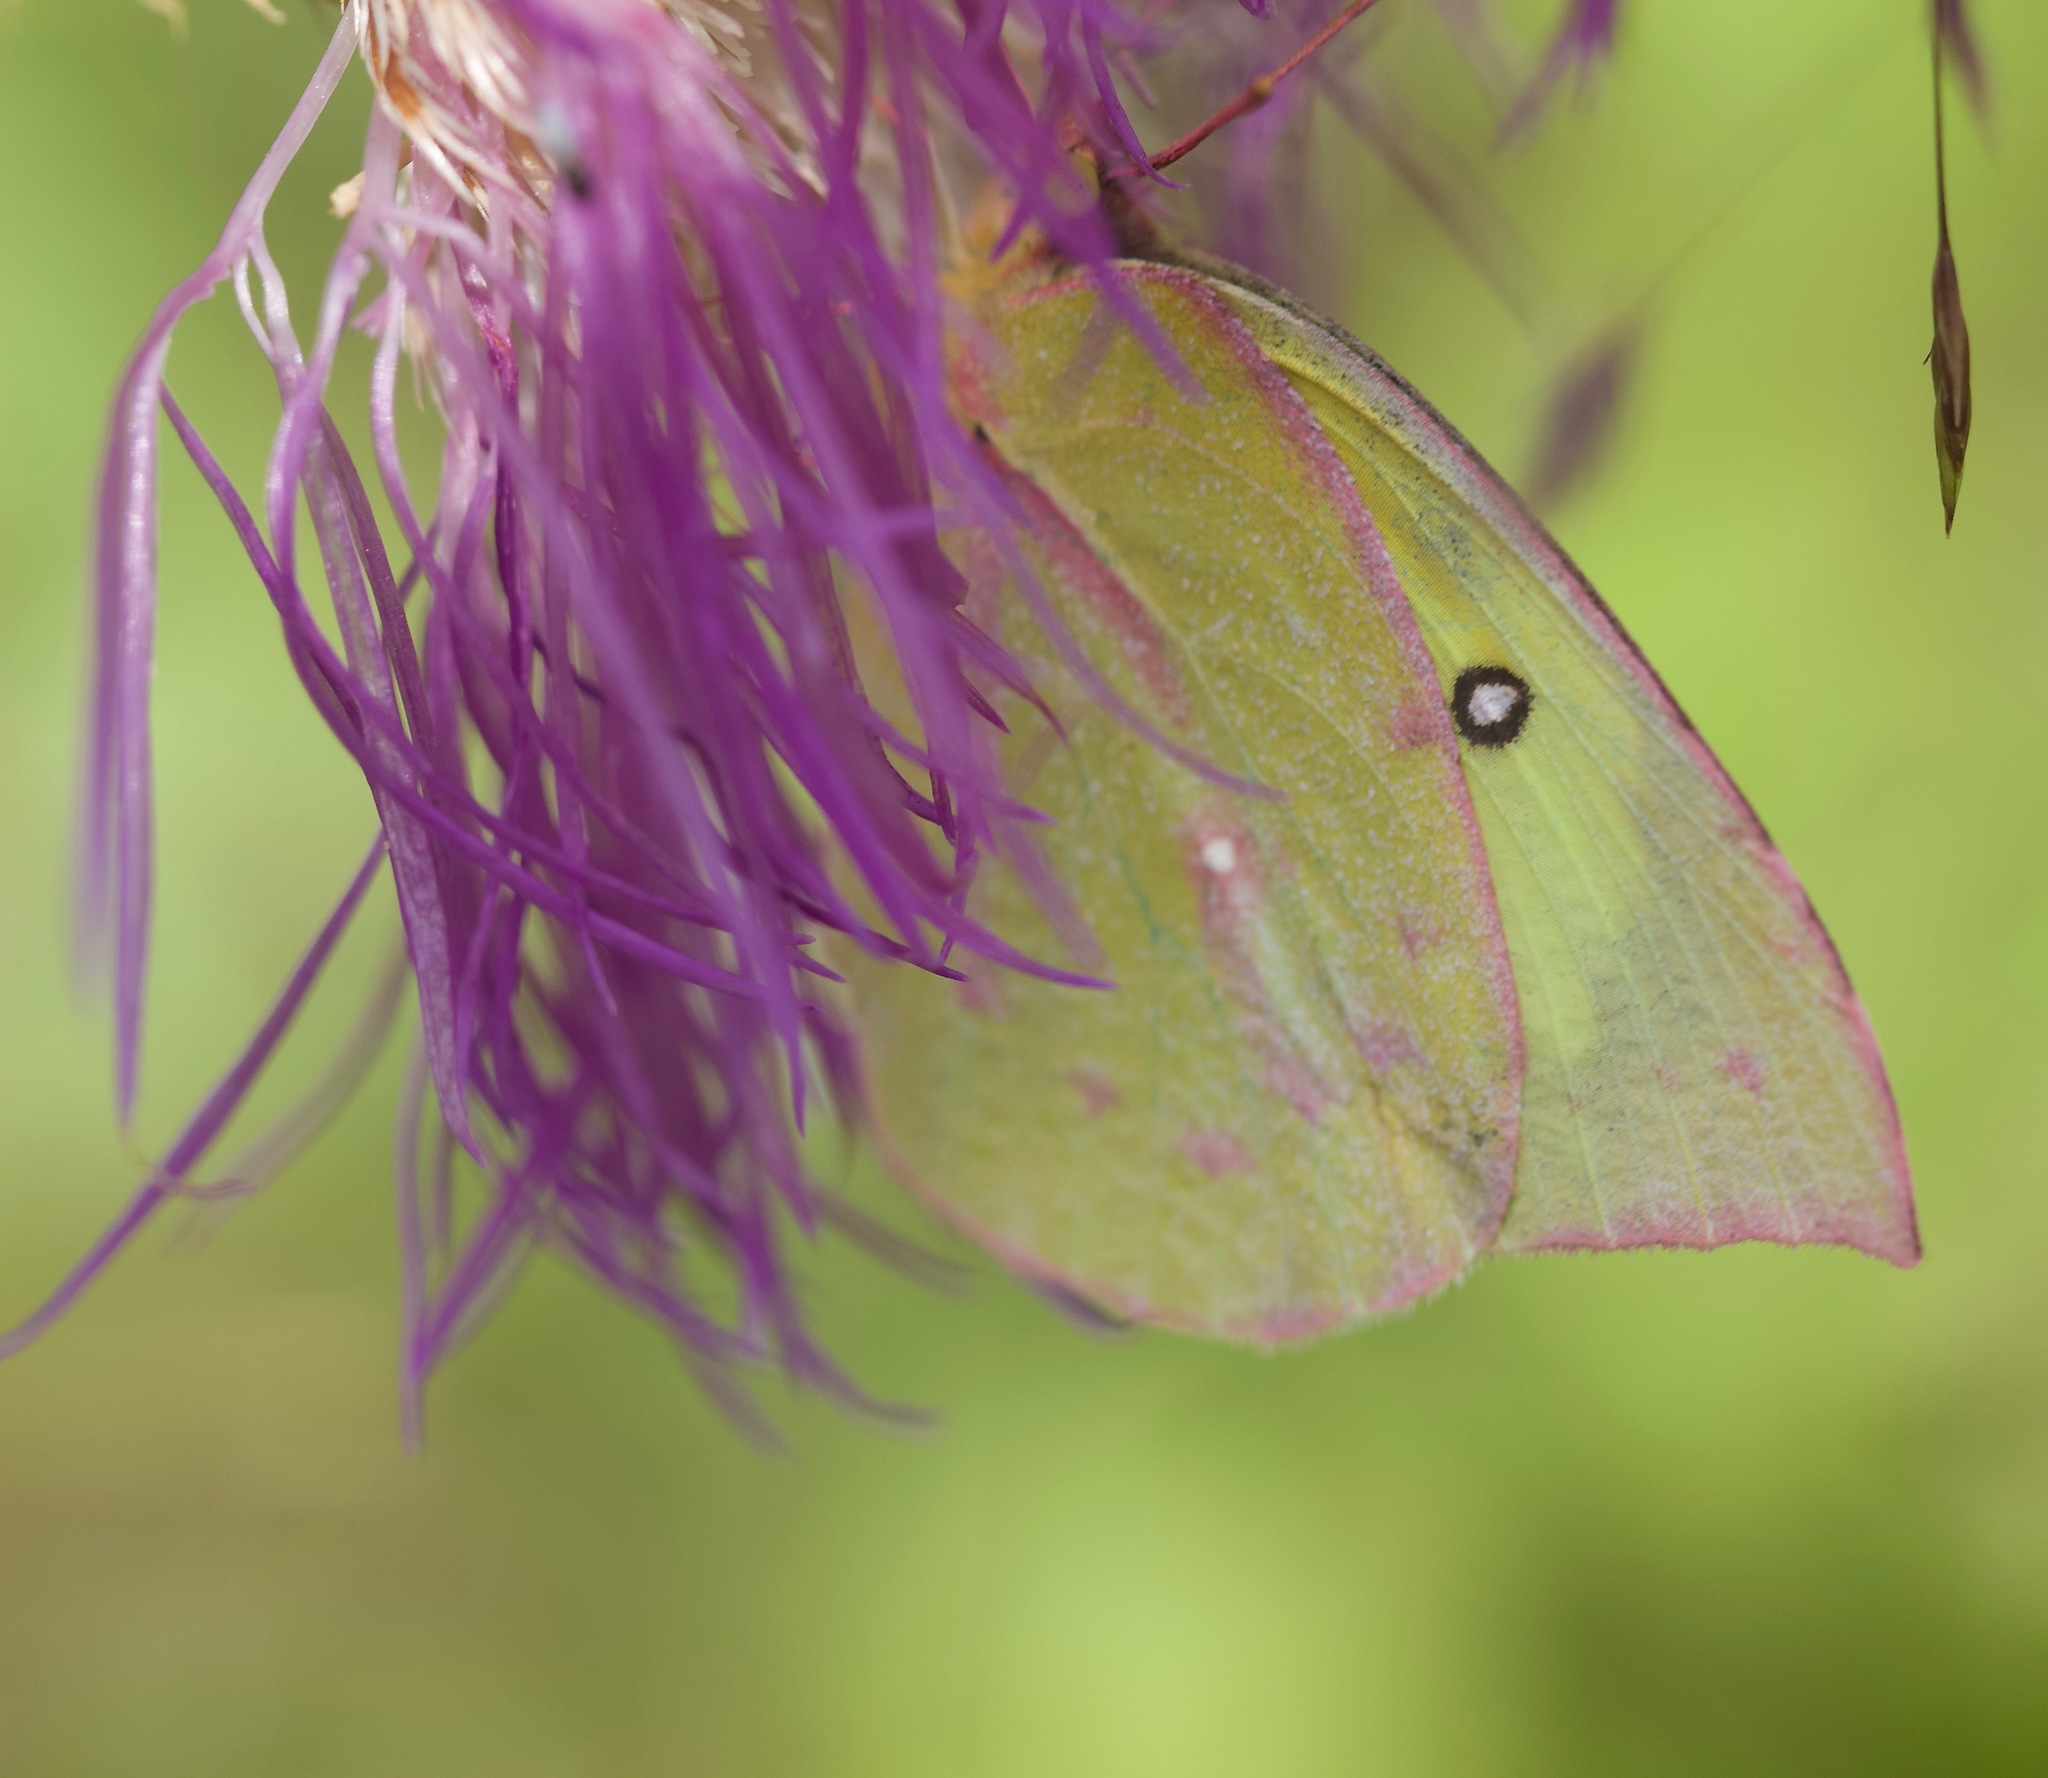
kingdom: Animalia
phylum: Arthropoda
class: Insecta
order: Lepidoptera
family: Pieridae
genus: Zerene
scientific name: Zerene cesonia
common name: Southern dogface
